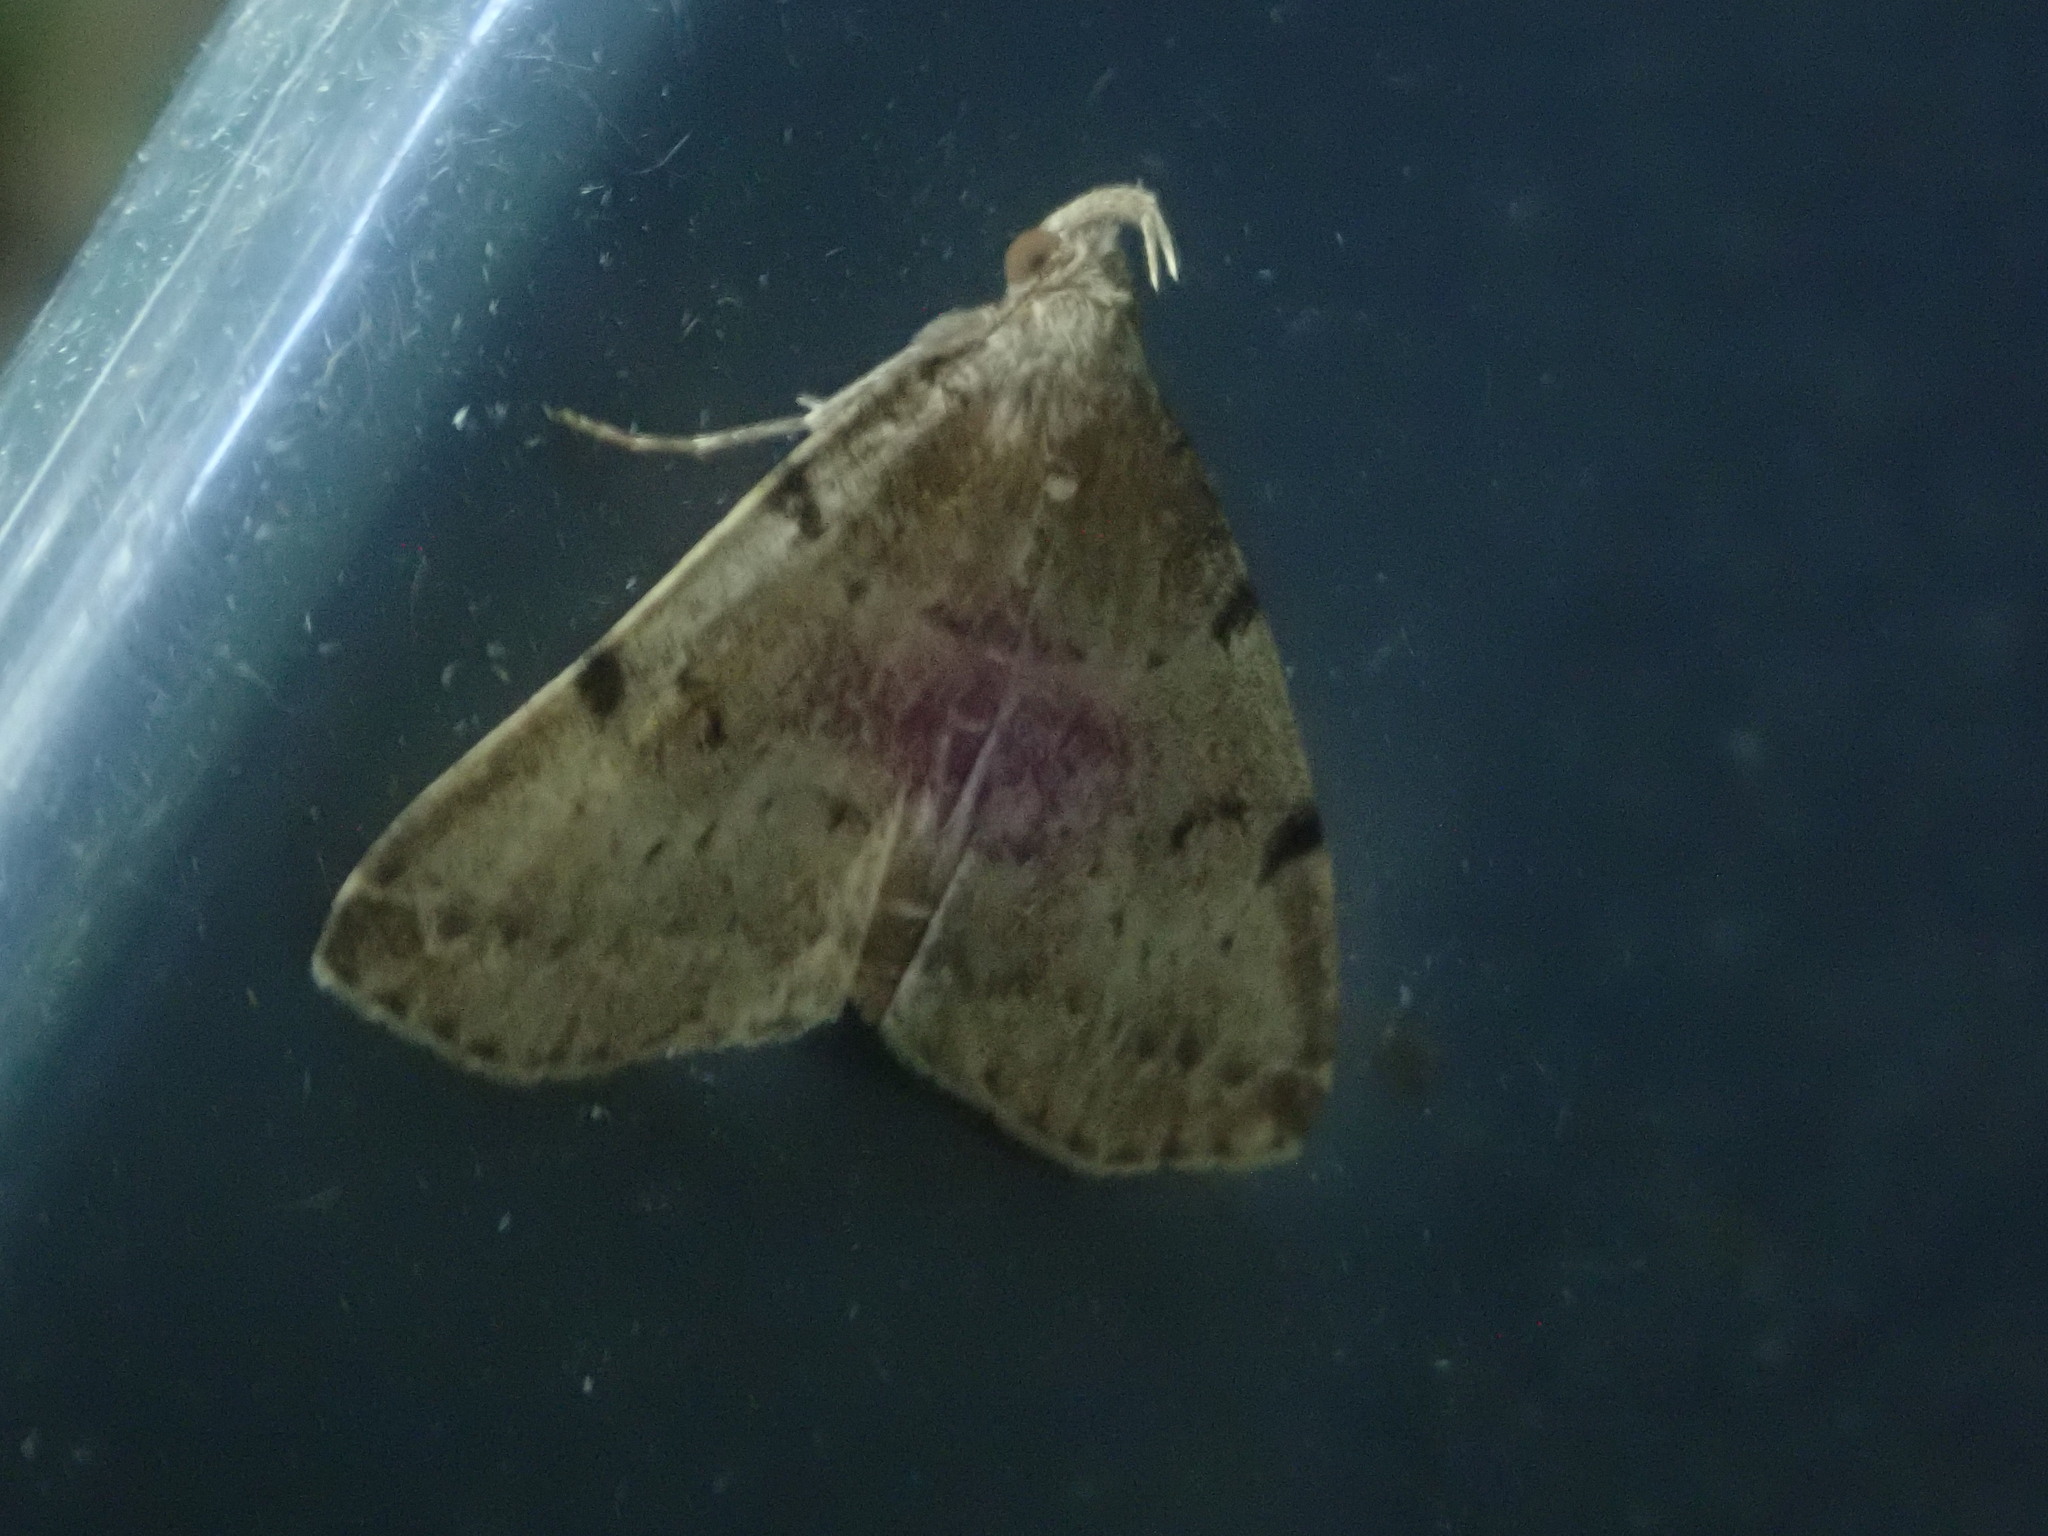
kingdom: Animalia
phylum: Arthropoda
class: Insecta
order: Lepidoptera
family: Erebidae
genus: Zanclognatha
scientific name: Zanclognatha lituralis
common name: Lettered fan-foot
